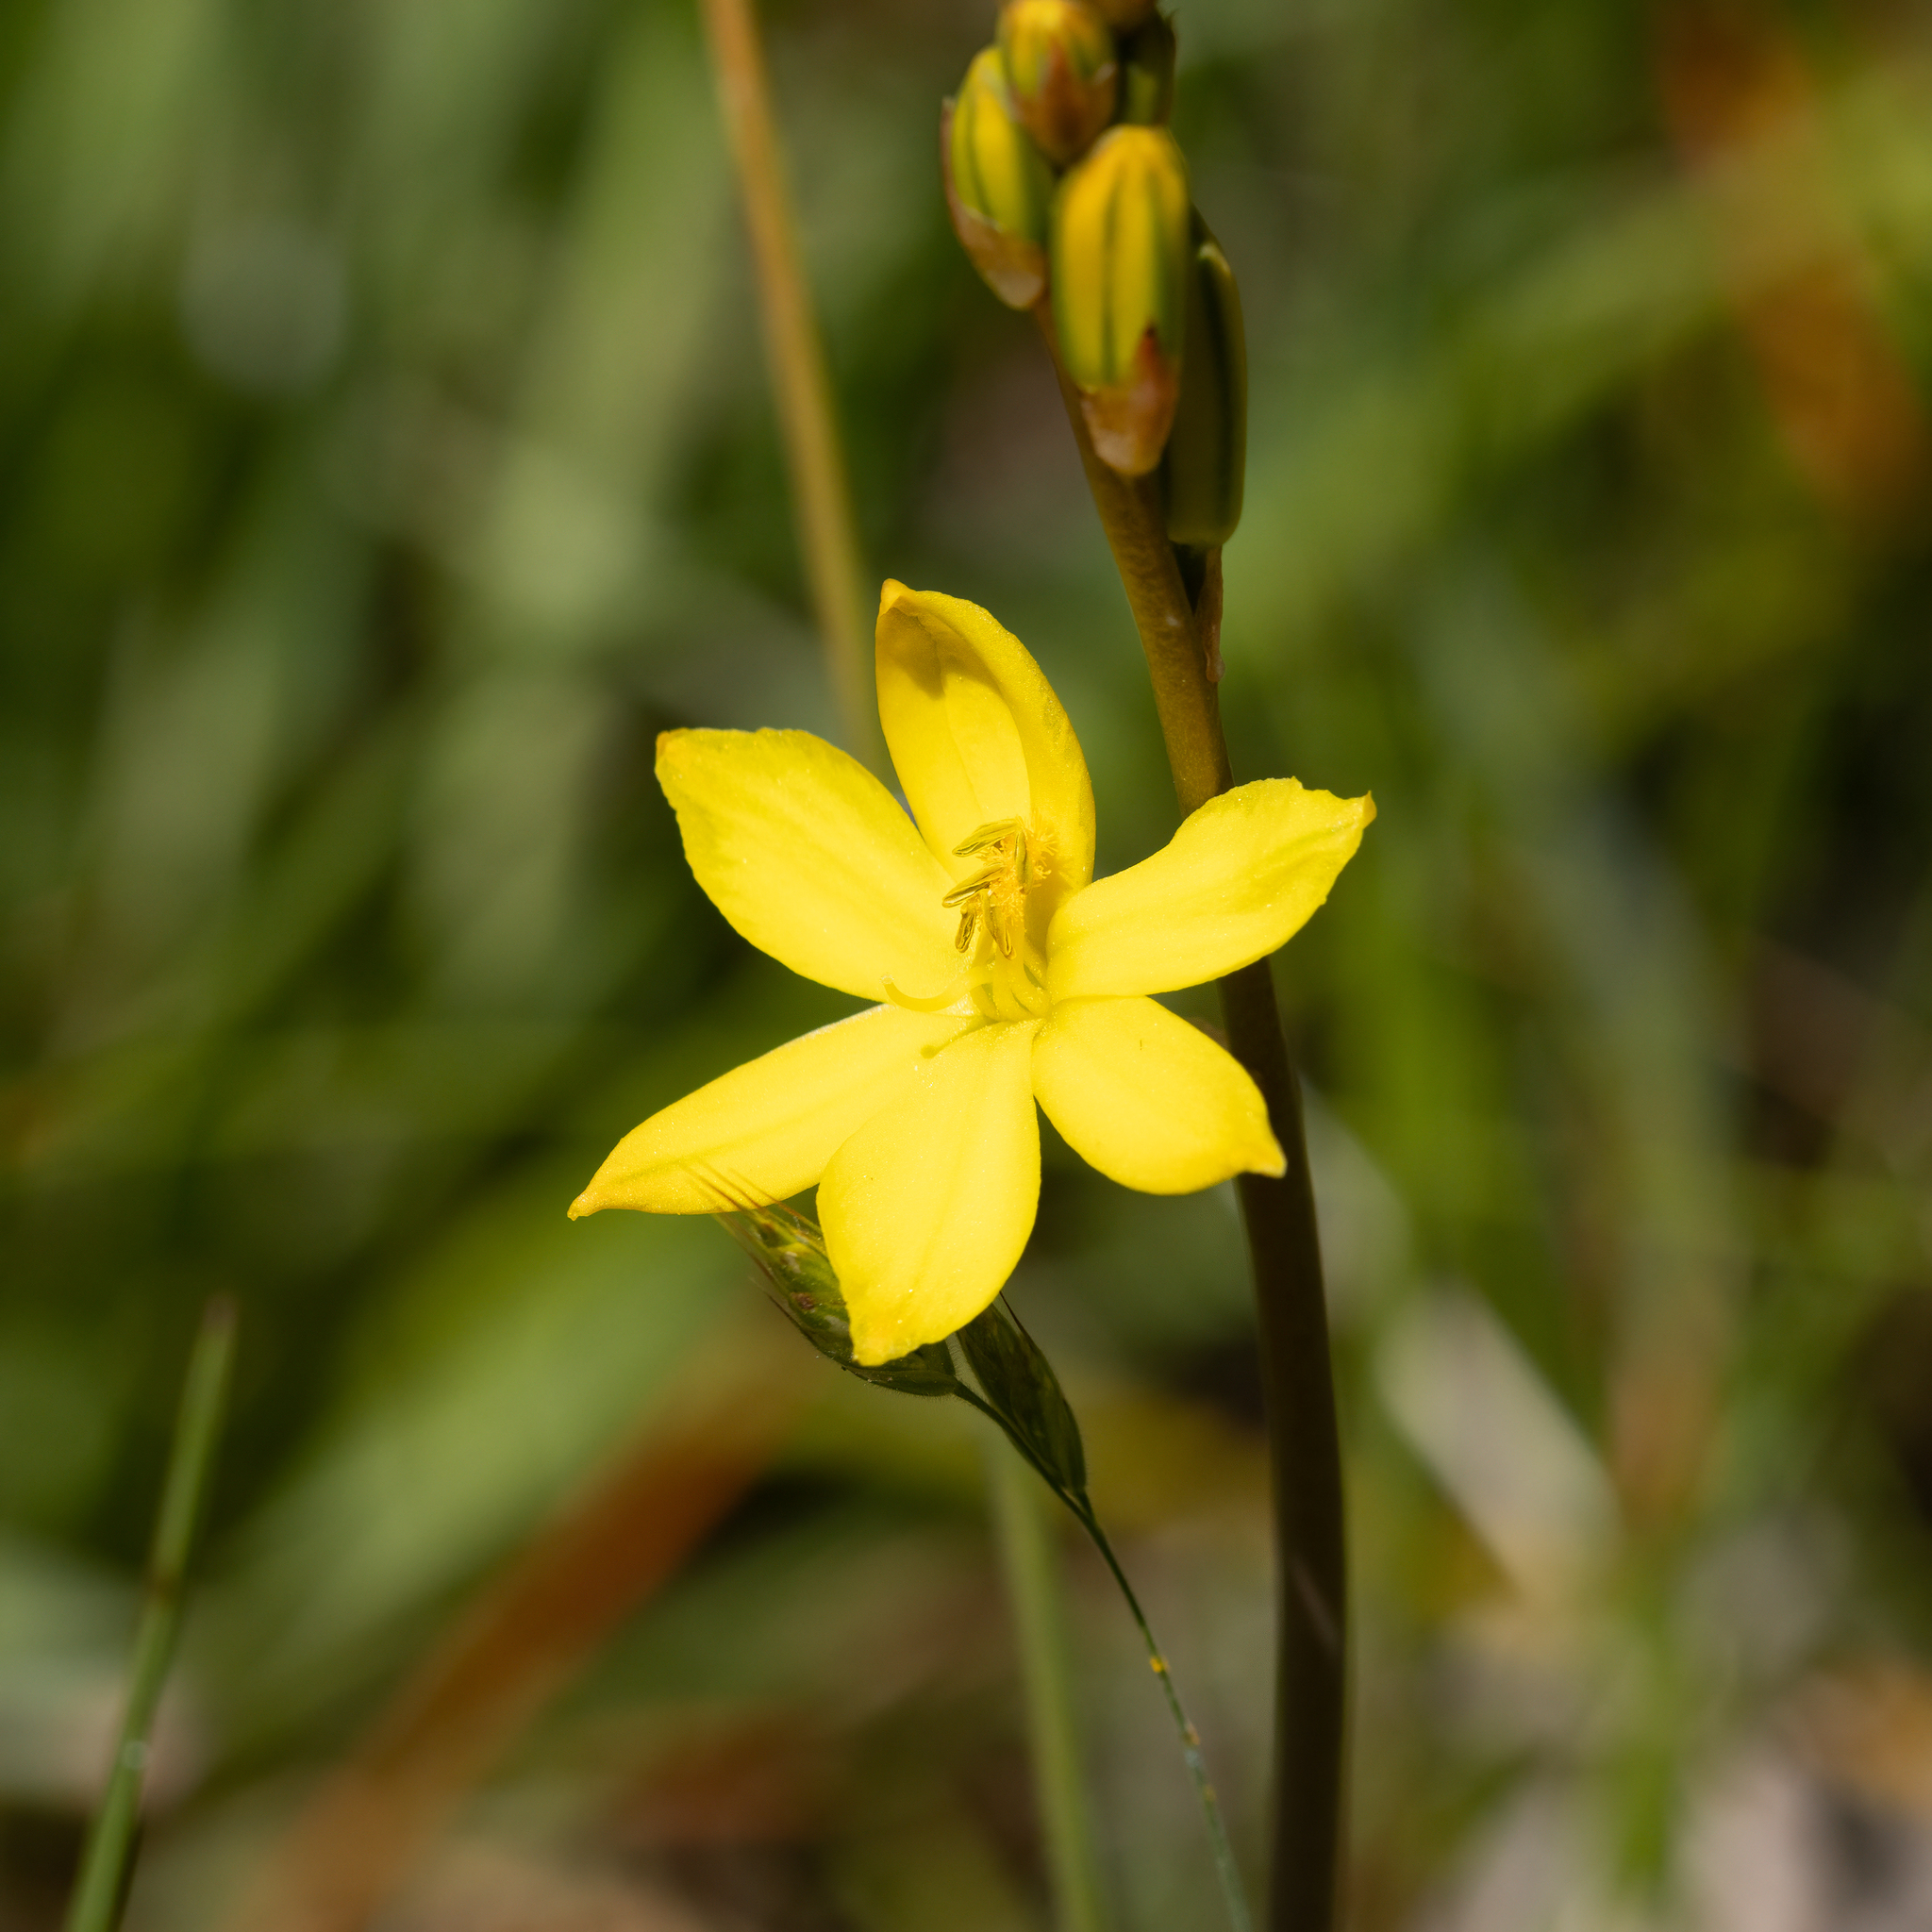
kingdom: Plantae
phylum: Tracheophyta
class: Liliopsida
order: Asparagales
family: Asphodelaceae
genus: Bulbine
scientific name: Bulbine bulbosa
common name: Golden-lily
